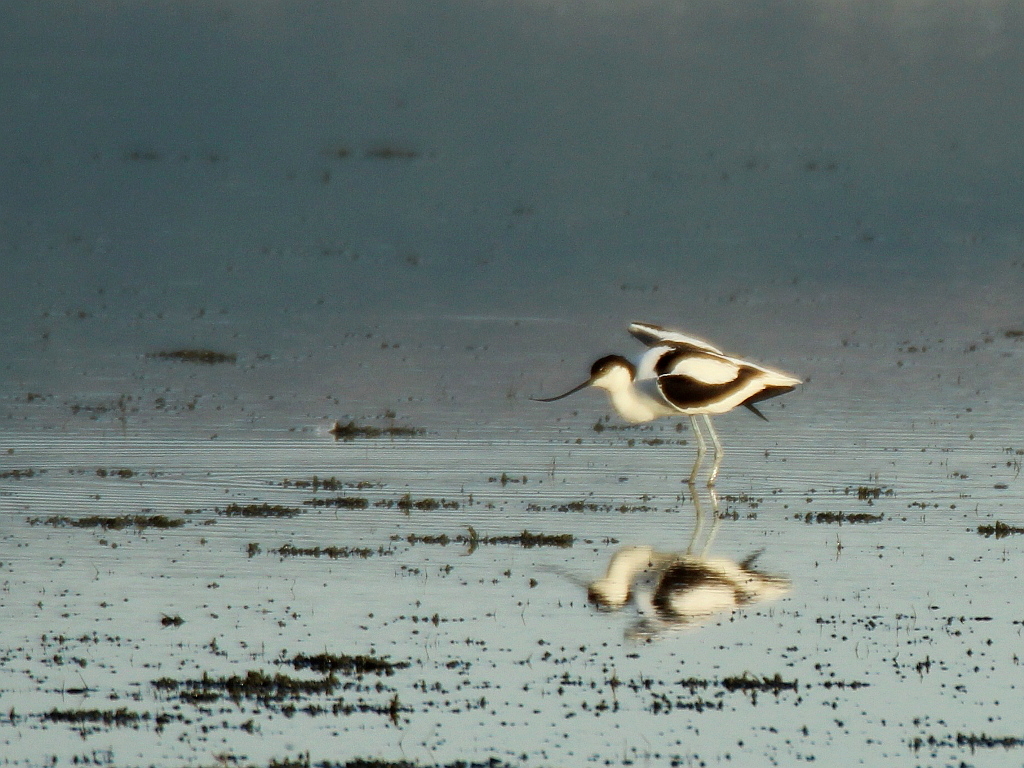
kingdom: Animalia
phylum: Chordata
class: Aves
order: Charadriiformes
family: Recurvirostridae
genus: Recurvirostra
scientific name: Recurvirostra avosetta
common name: Pied avocet
